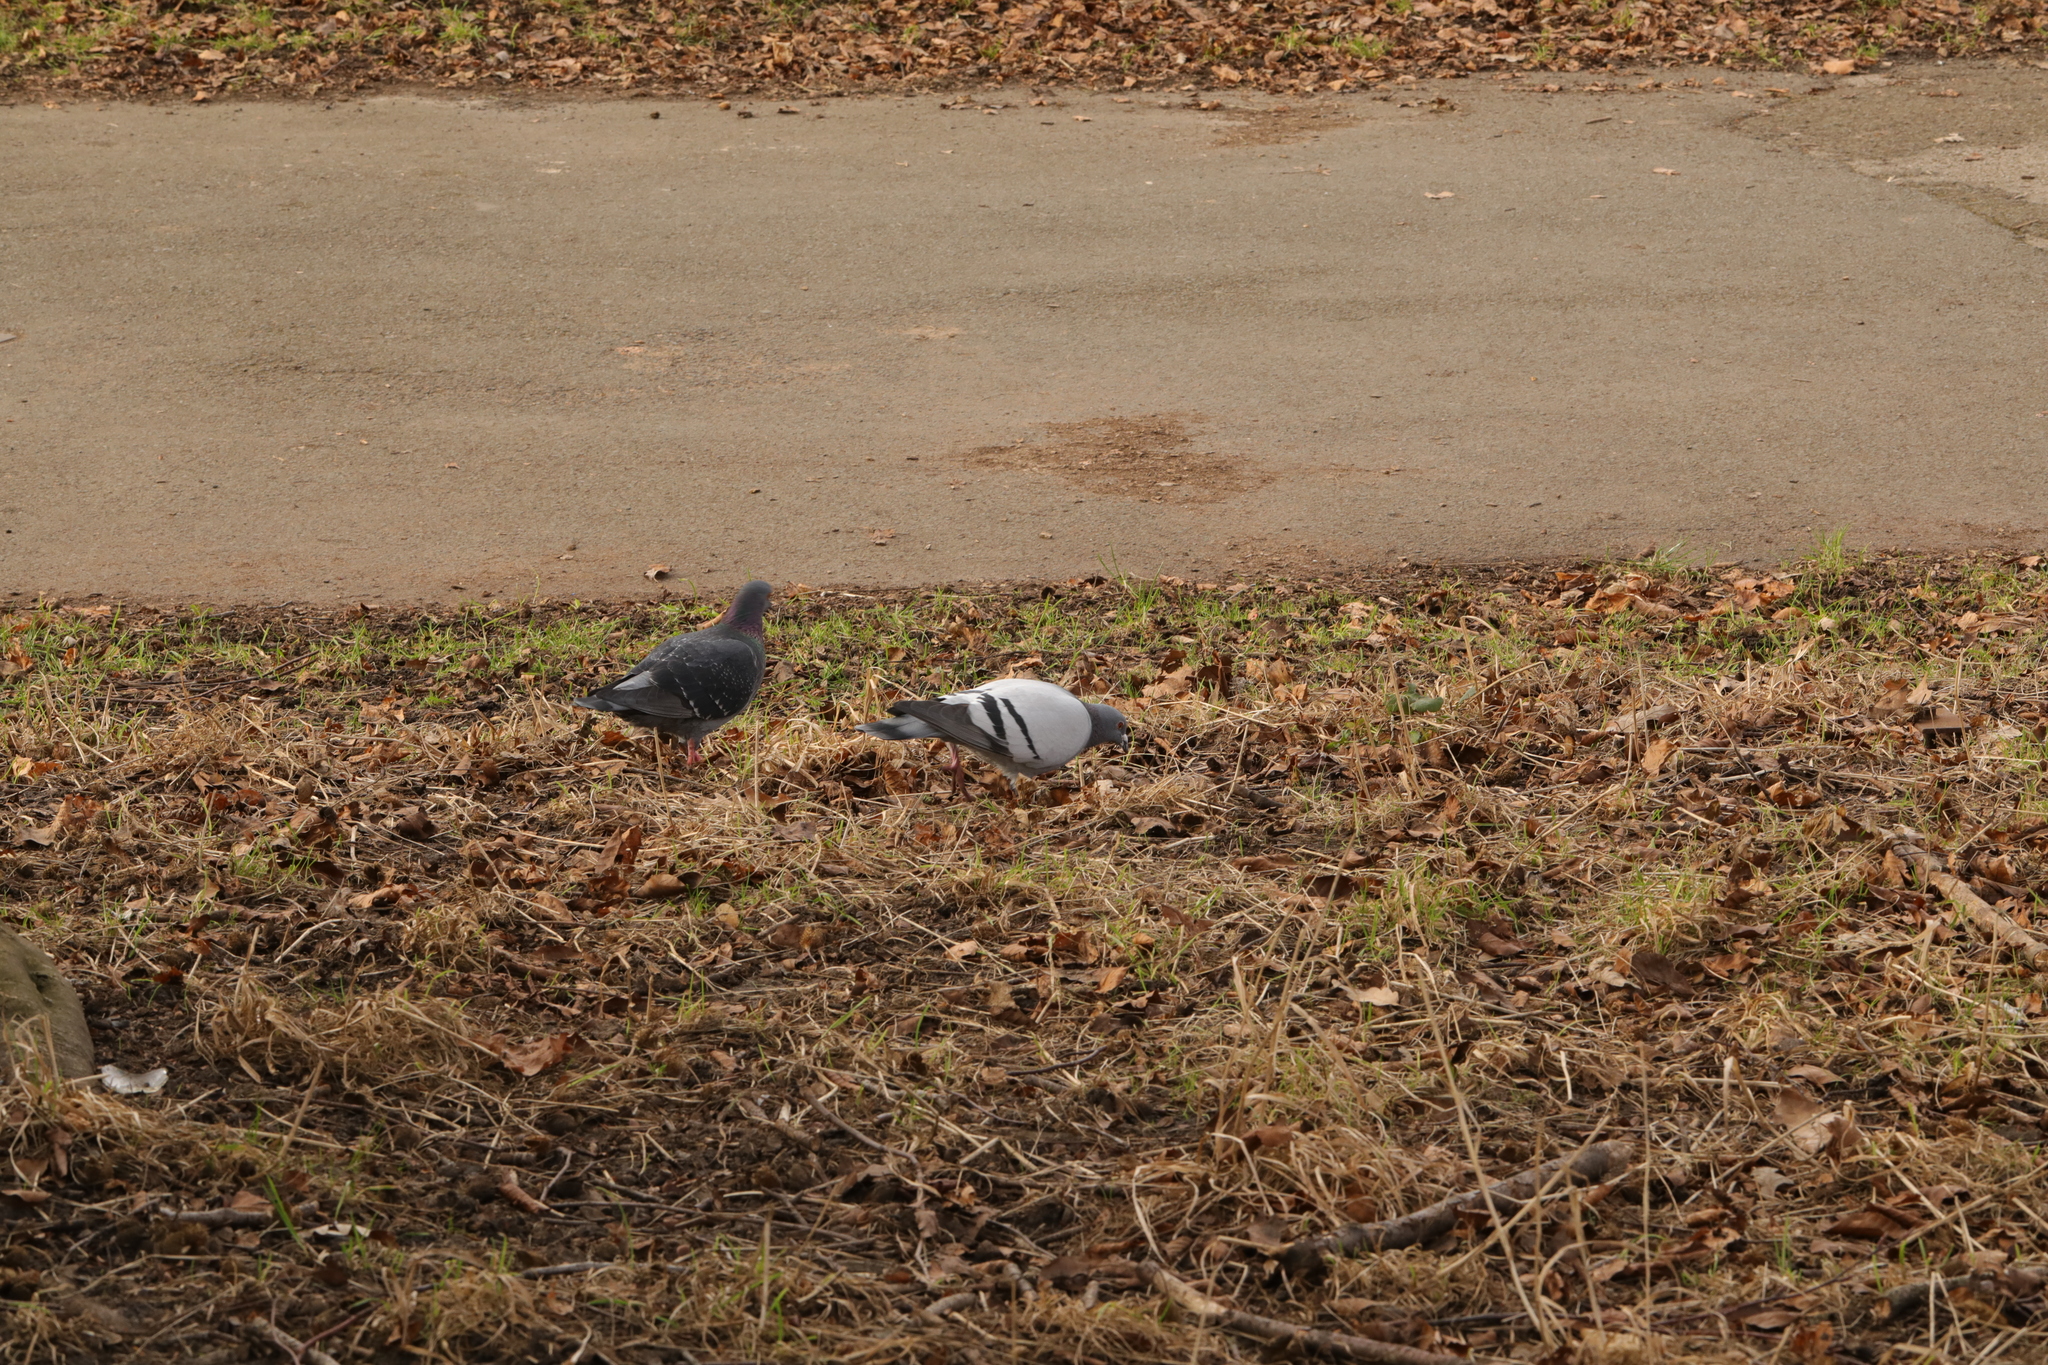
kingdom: Animalia
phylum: Chordata
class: Aves
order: Columbiformes
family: Columbidae
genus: Columba
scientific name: Columba livia
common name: Rock pigeon
